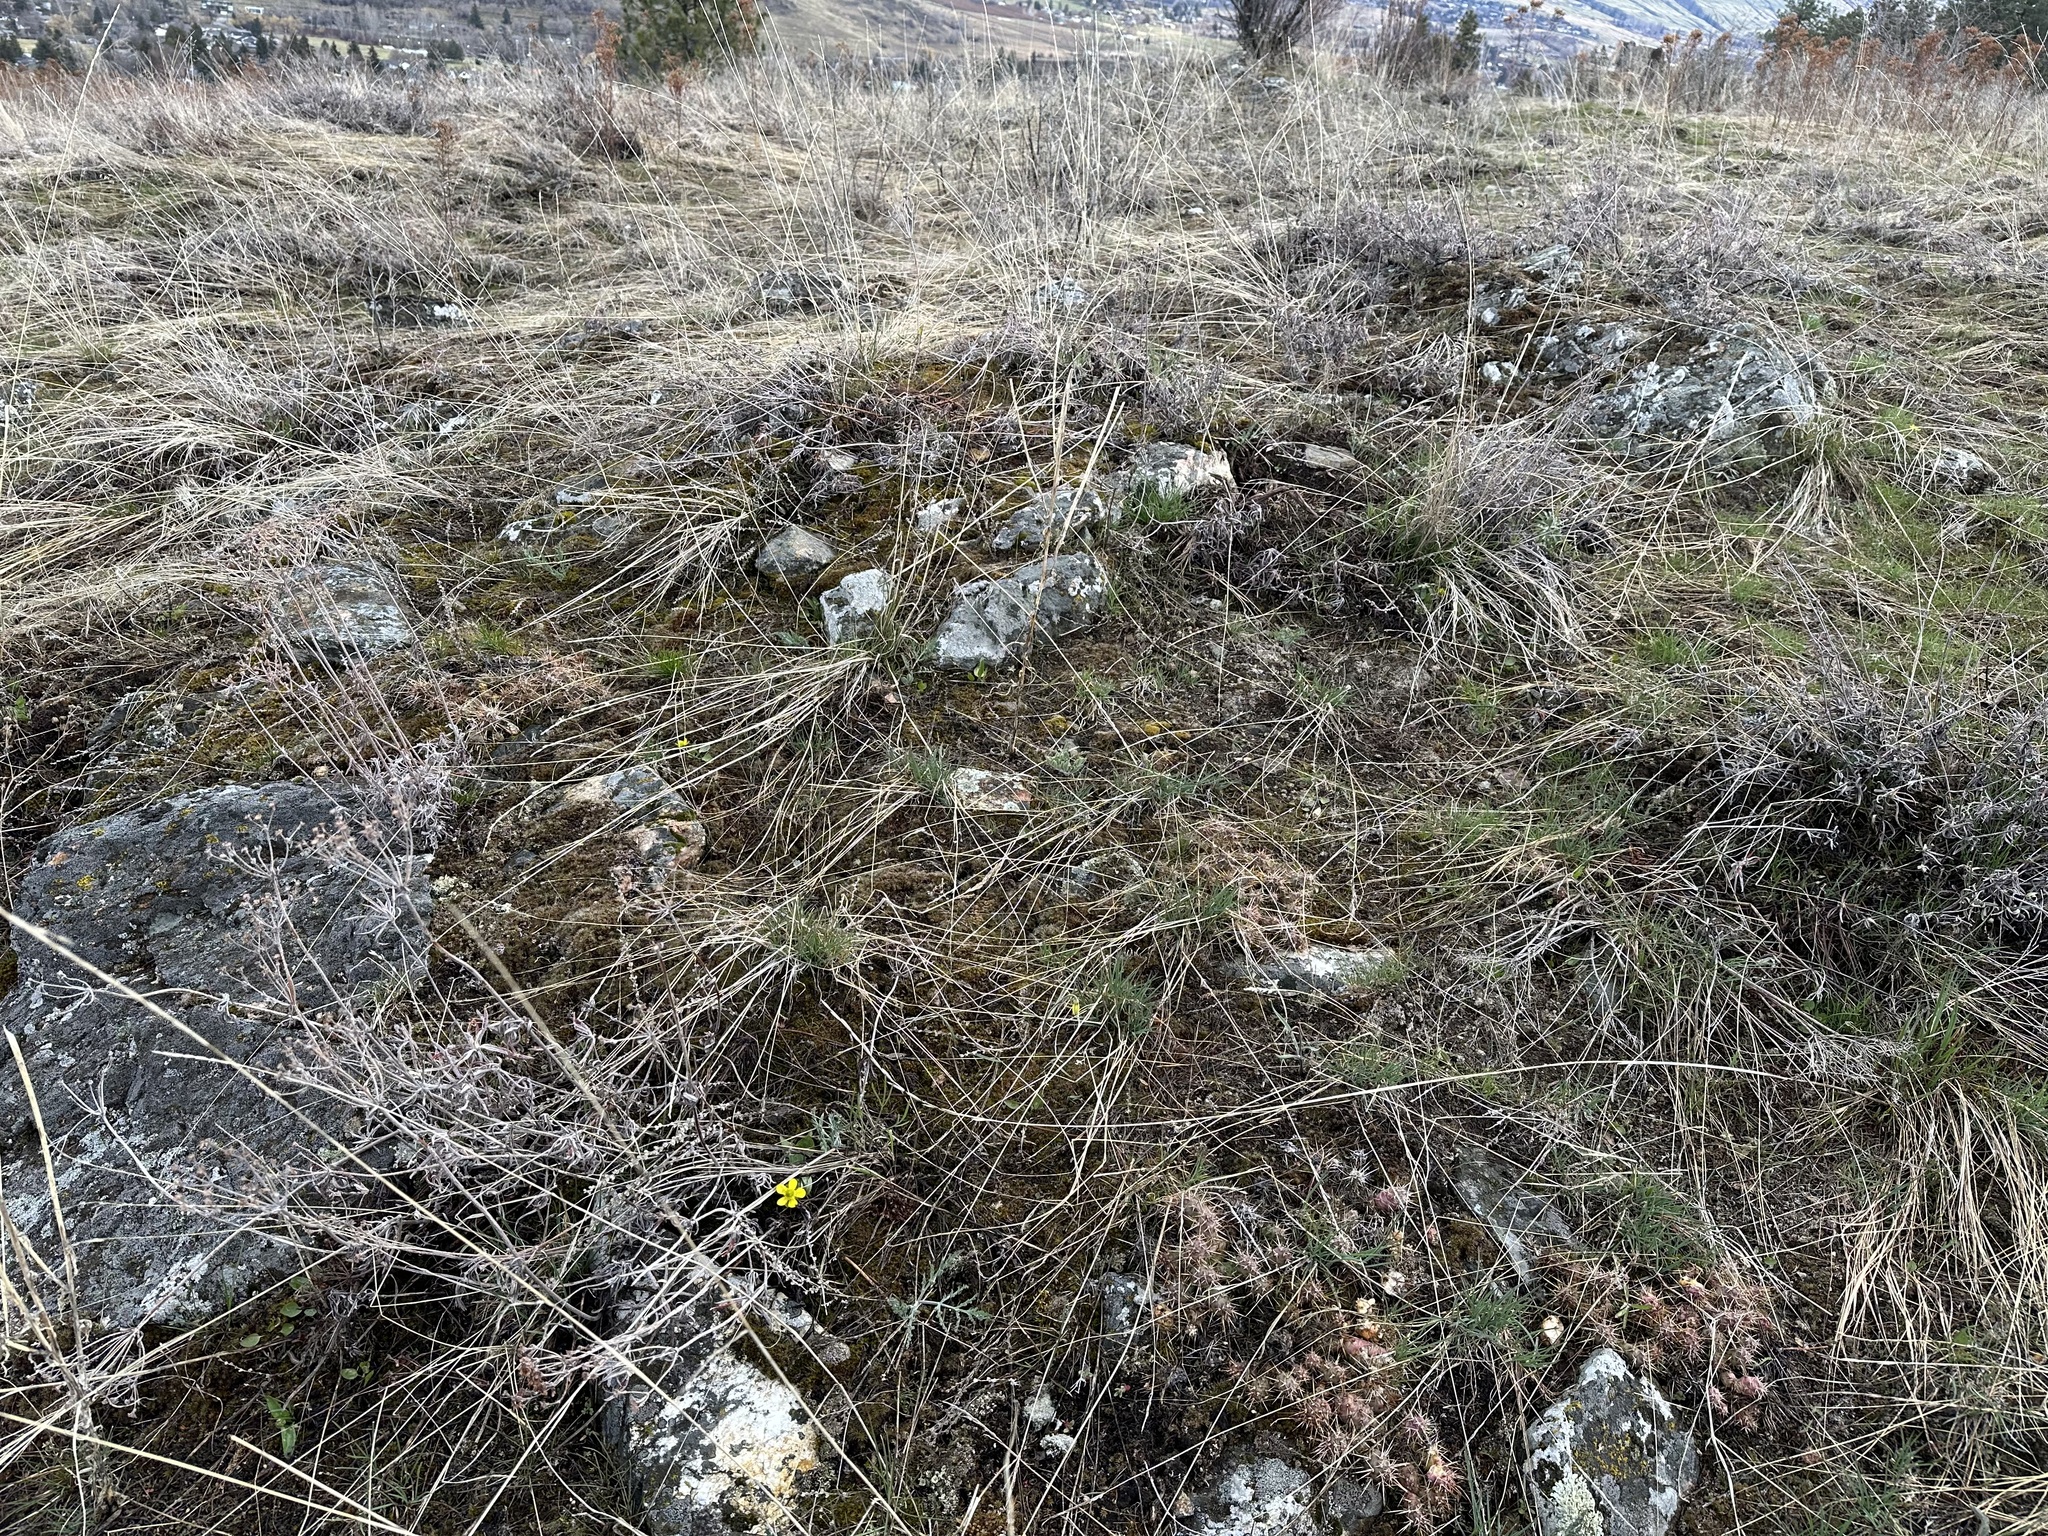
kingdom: Plantae
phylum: Tracheophyta
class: Magnoliopsida
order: Caryophyllales
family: Cactaceae
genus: Opuntia
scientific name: Opuntia fragilis
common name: Brittle cactus
